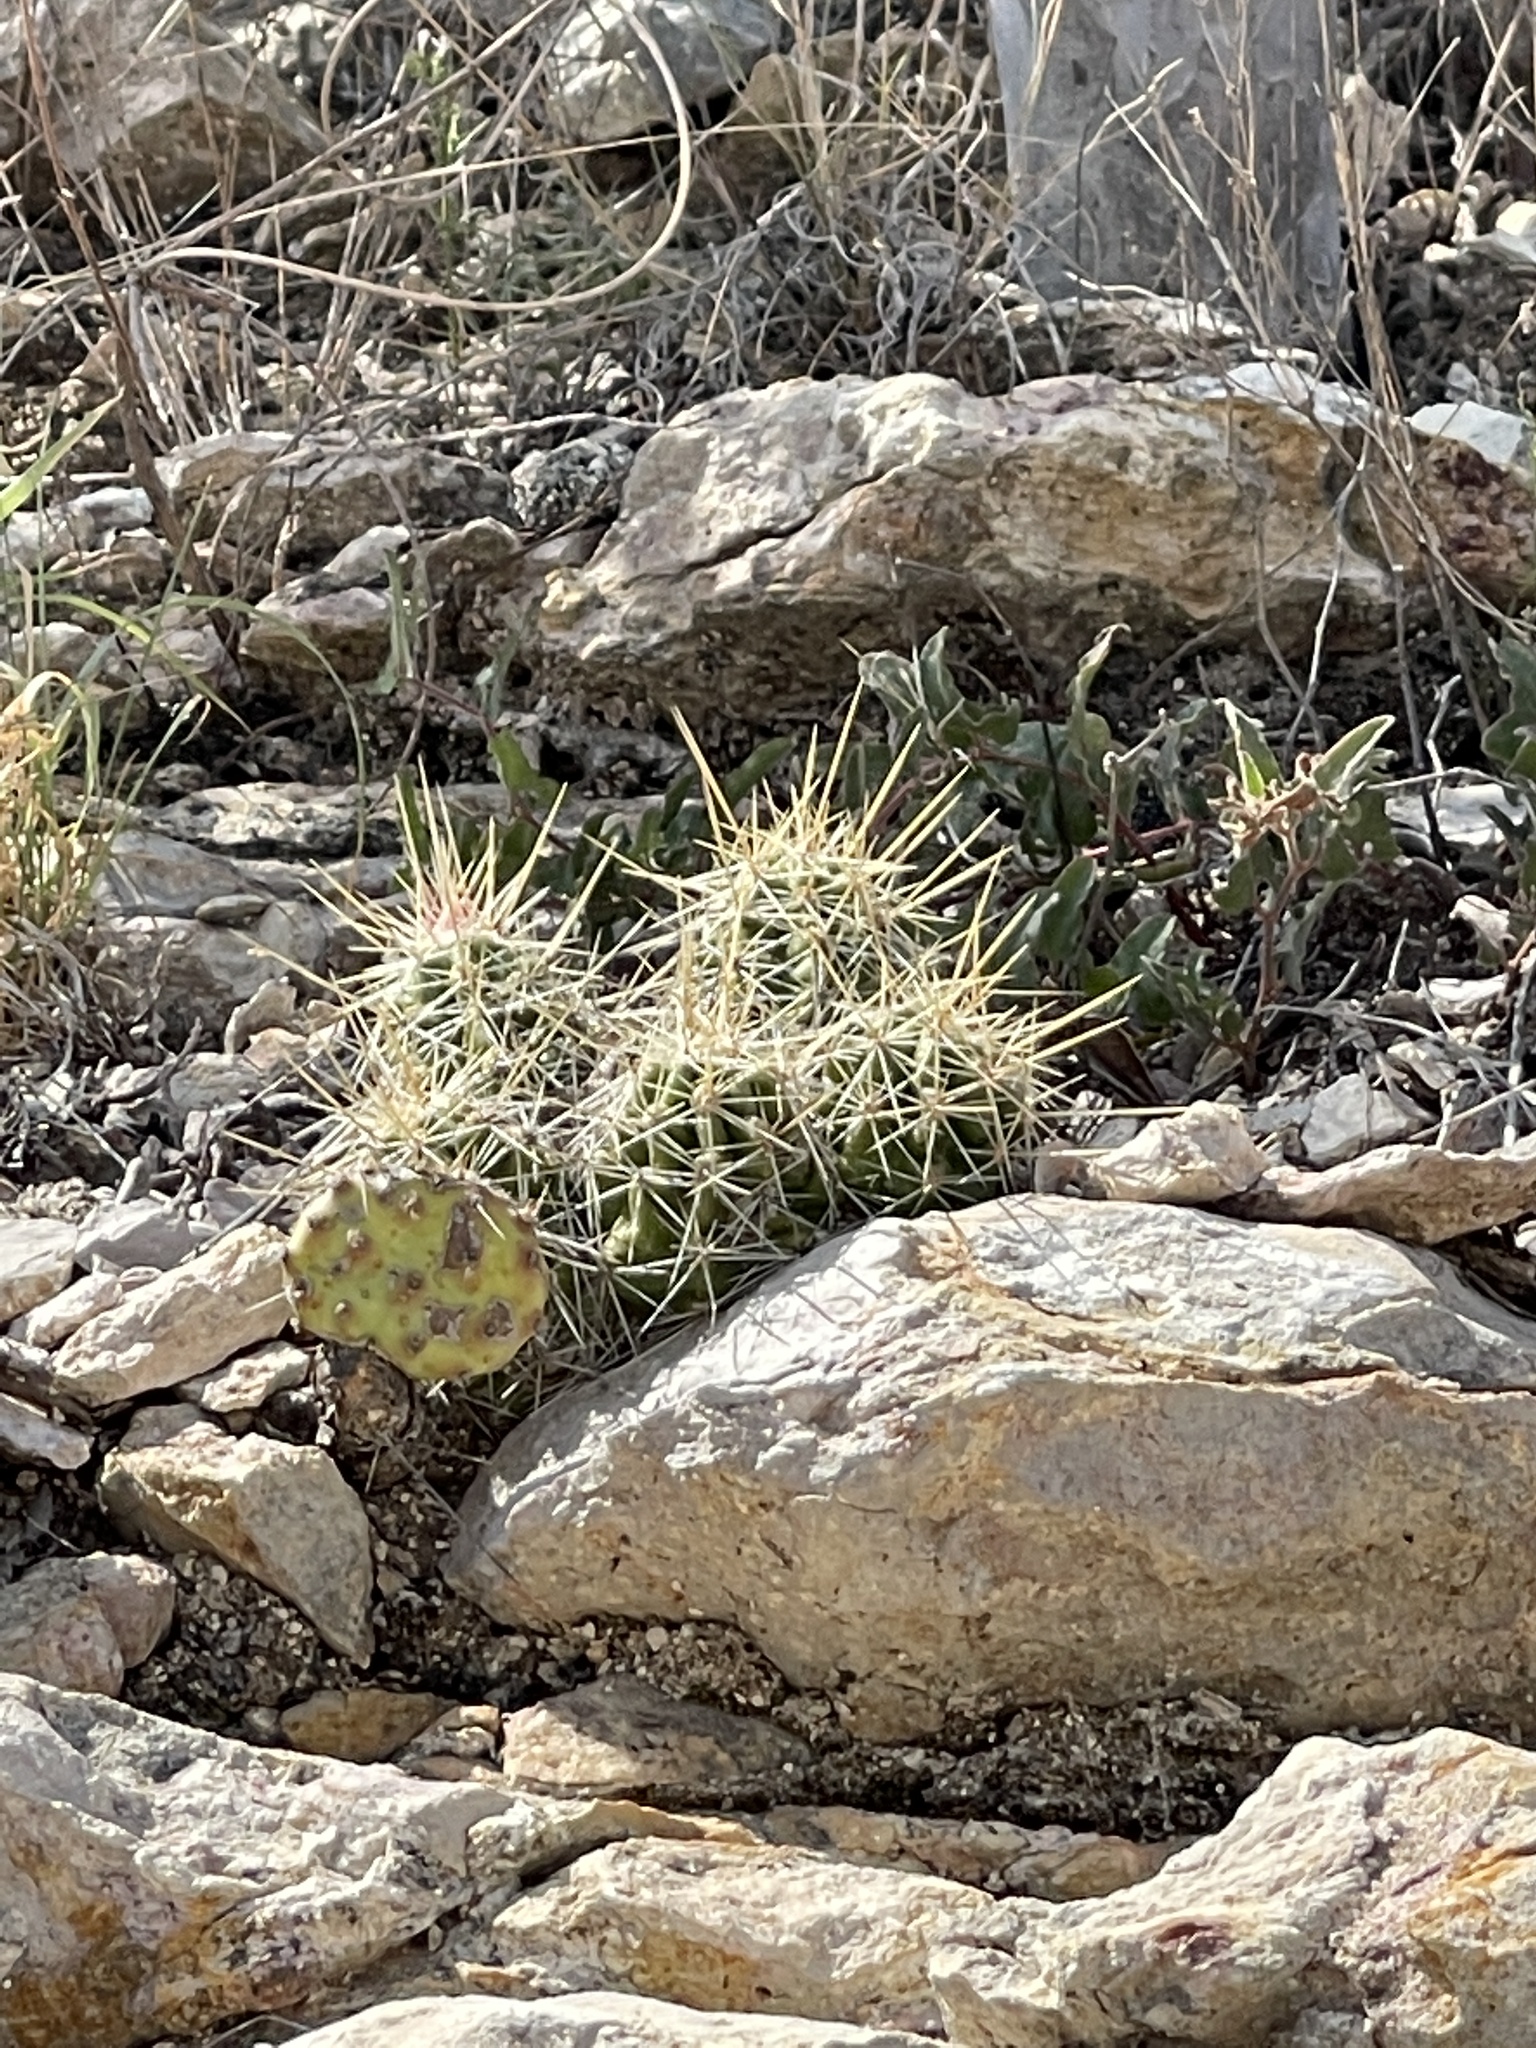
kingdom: Plantae
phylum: Tracheophyta
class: Magnoliopsida
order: Caryophyllales
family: Cactaceae
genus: Echinocereus
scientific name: Echinocereus enneacanthus
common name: Pitaya
